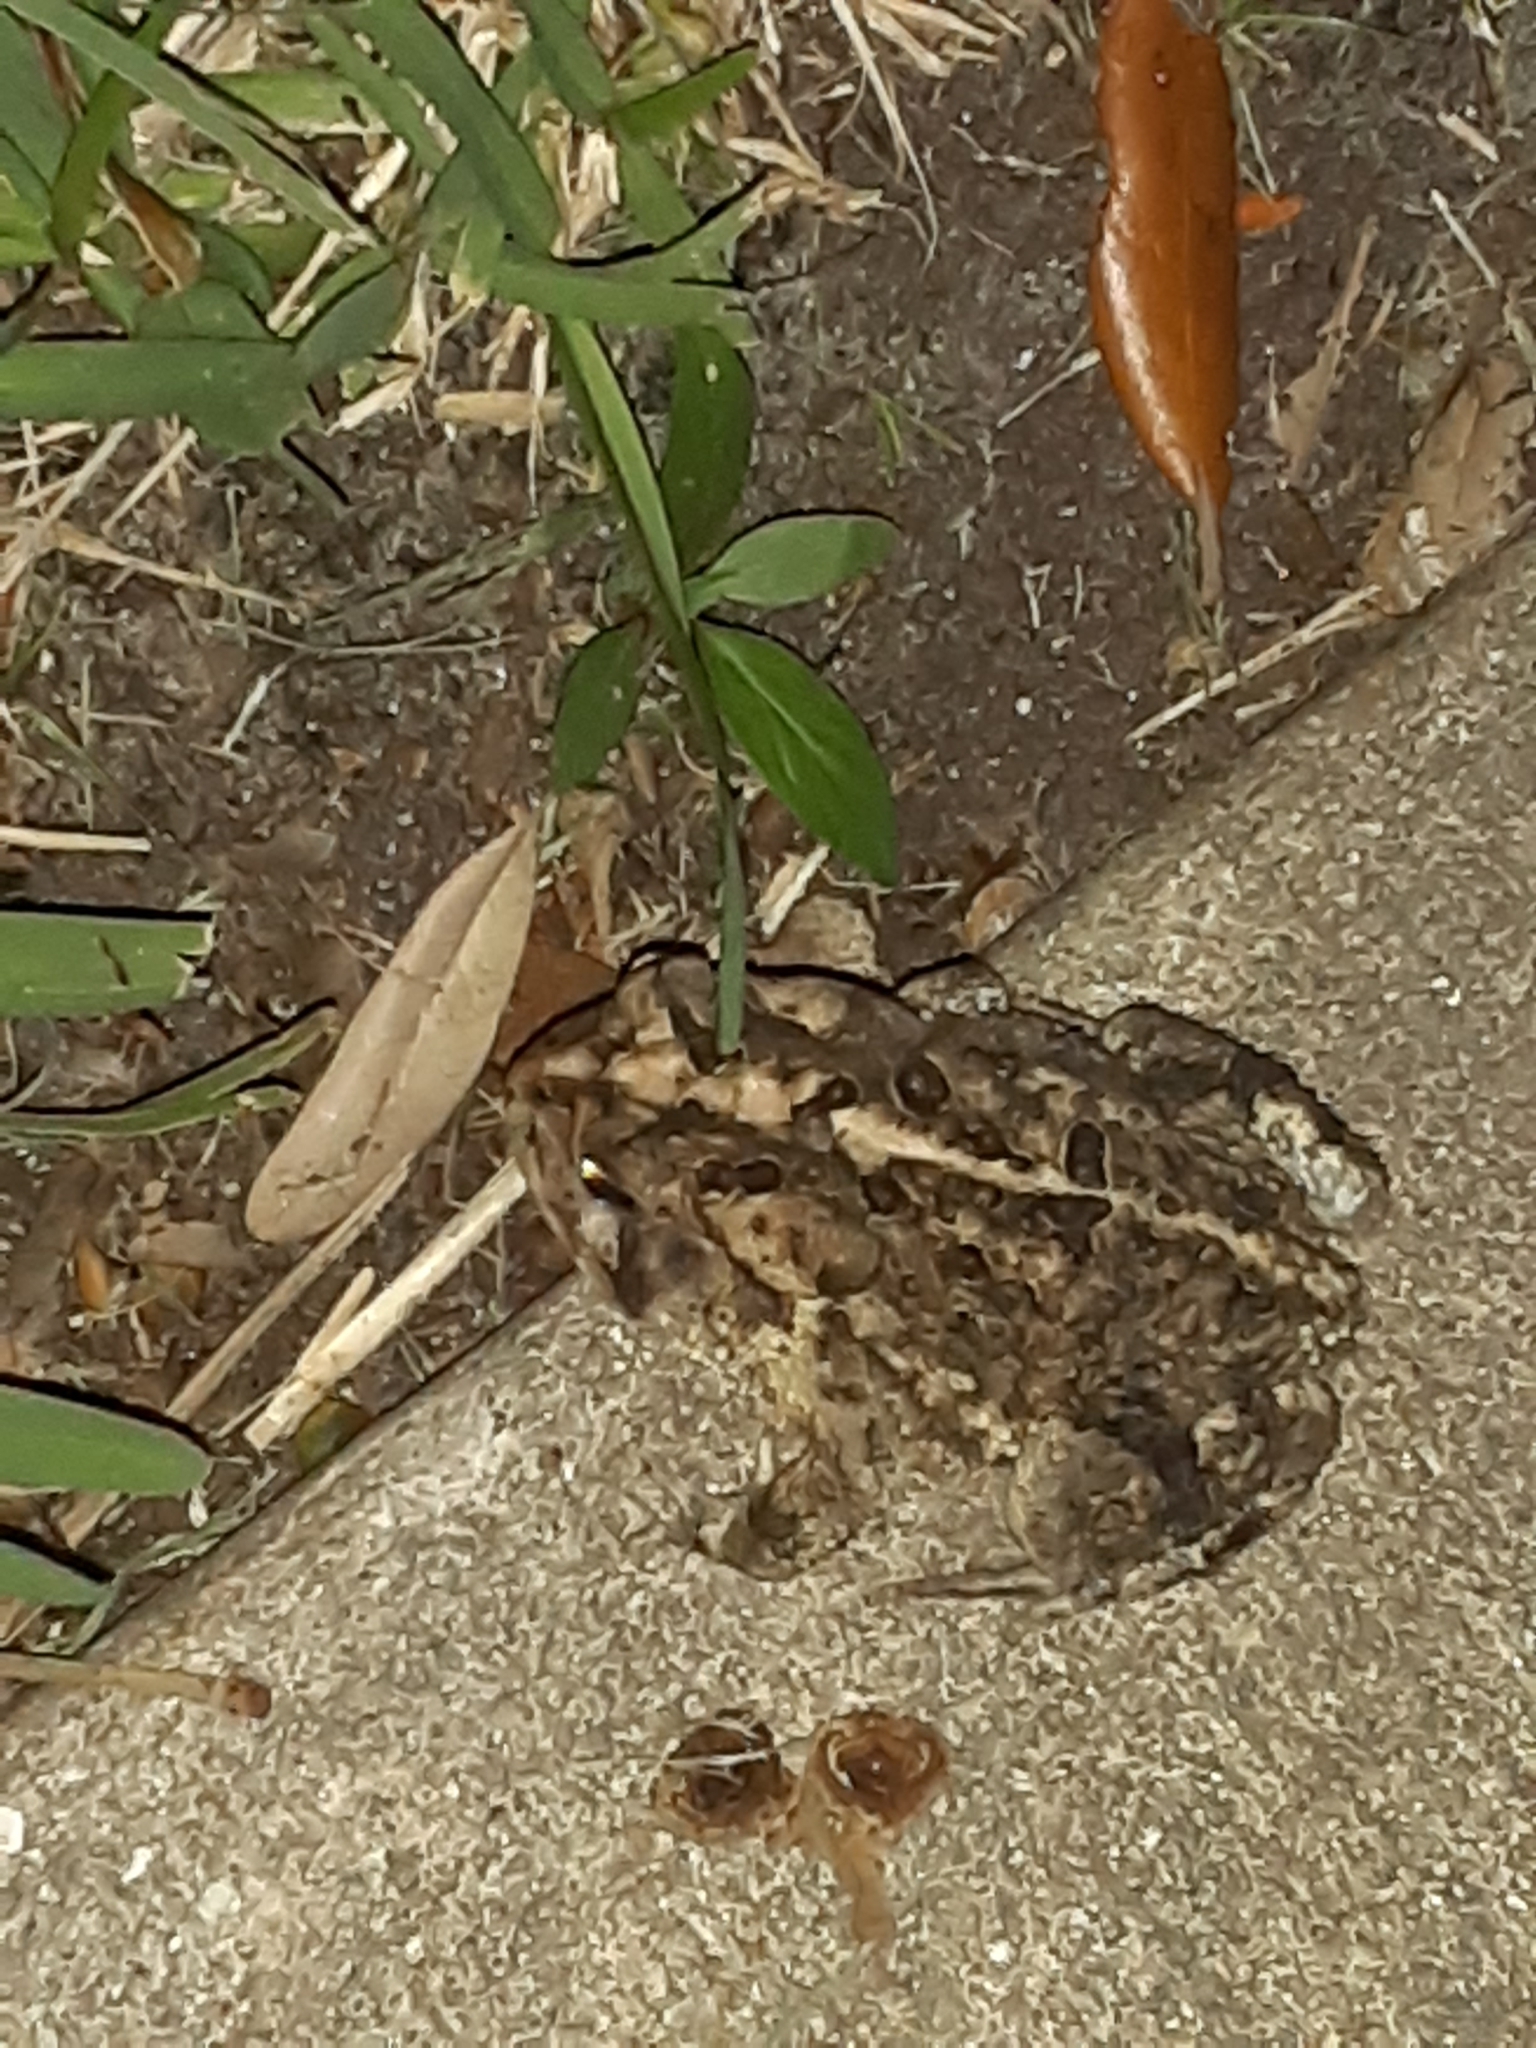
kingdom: Animalia
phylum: Chordata
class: Amphibia
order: Anura
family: Bufonidae
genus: Anaxyrus
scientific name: Anaxyrus terrestris
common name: Southern toad
